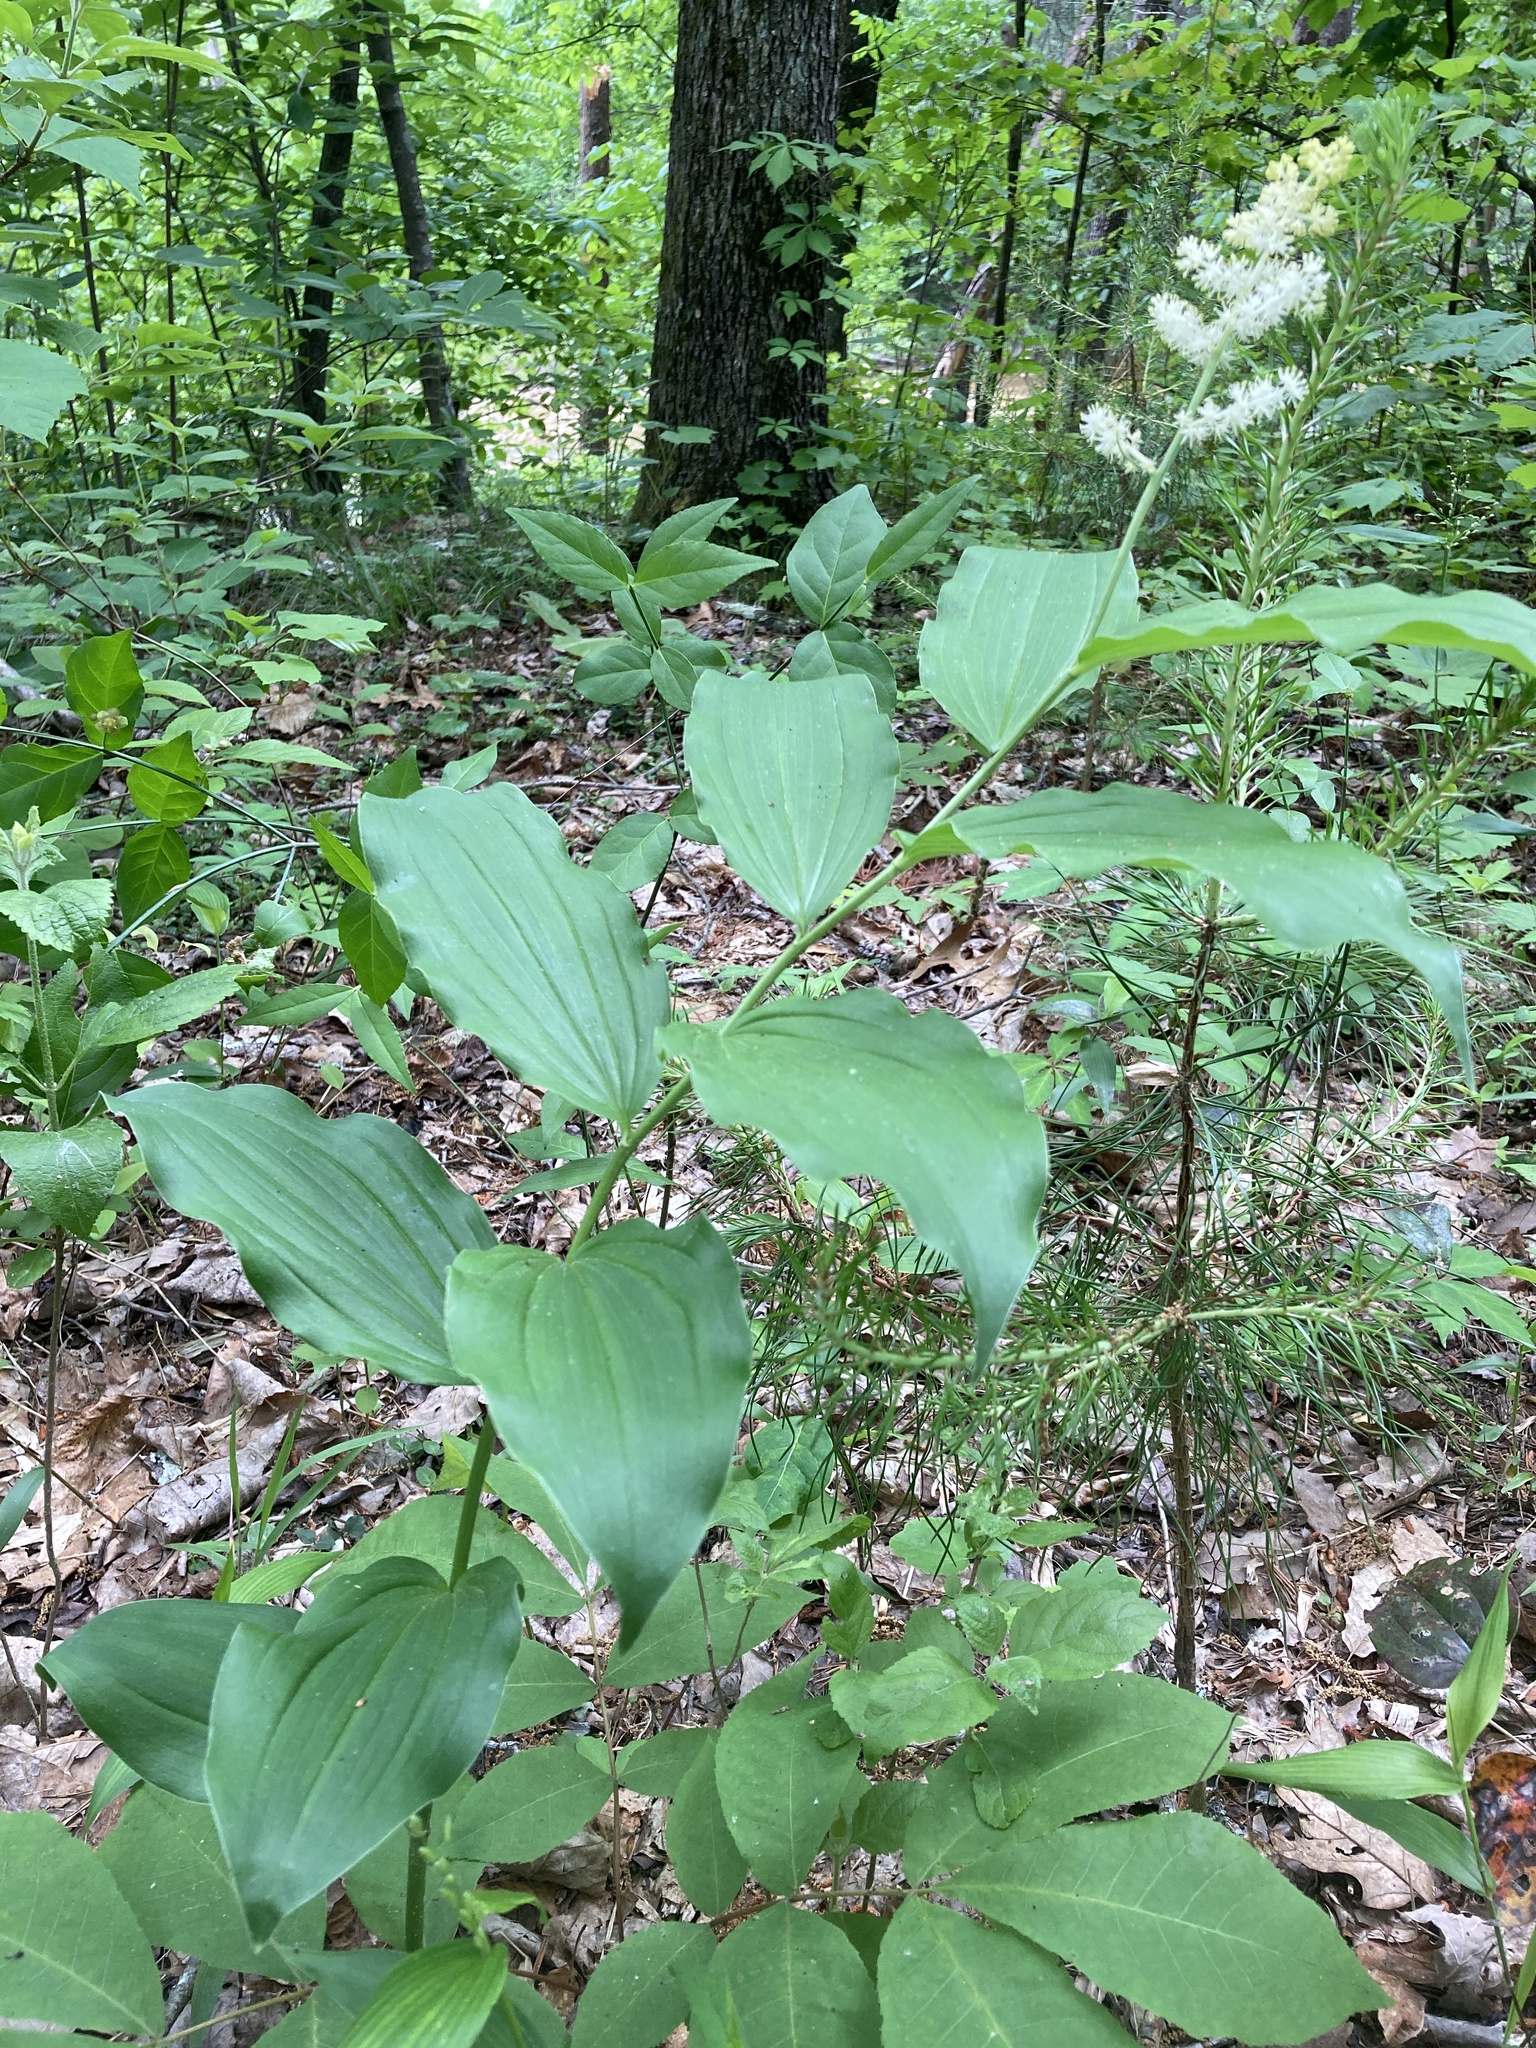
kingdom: Plantae
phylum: Tracheophyta
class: Liliopsida
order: Asparagales
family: Asparagaceae
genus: Maianthemum
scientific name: Maianthemum racemosum
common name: False spikenard
